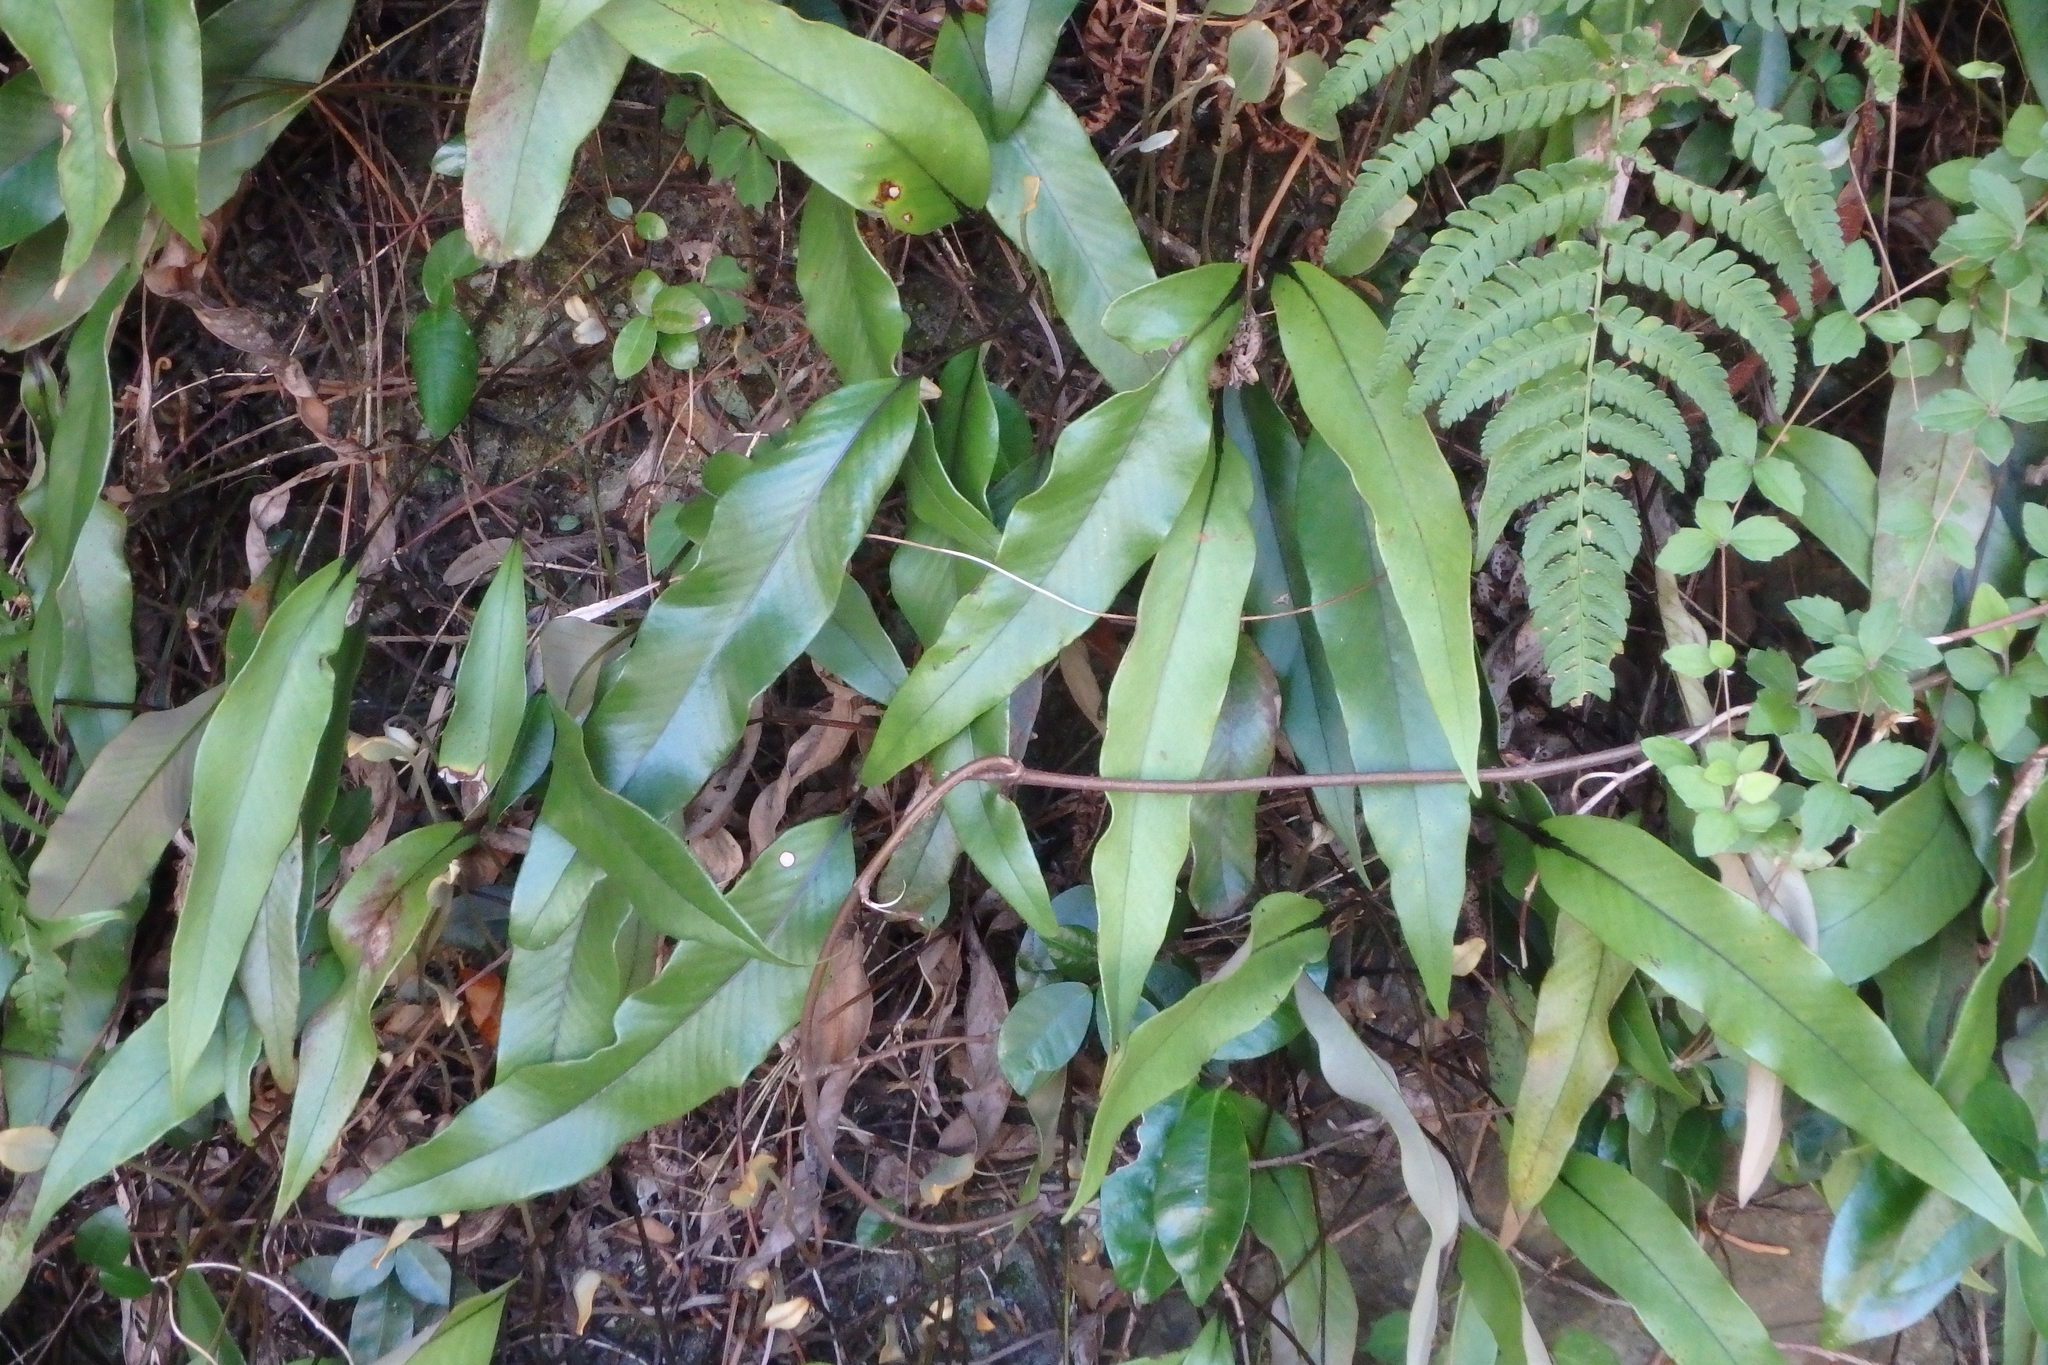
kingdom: Plantae
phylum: Tracheophyta
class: Polypodiopsida
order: Polypodiales
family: Polypodiaceae
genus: Pyrrosia
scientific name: Pyrrosia lingua
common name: Felt fern
